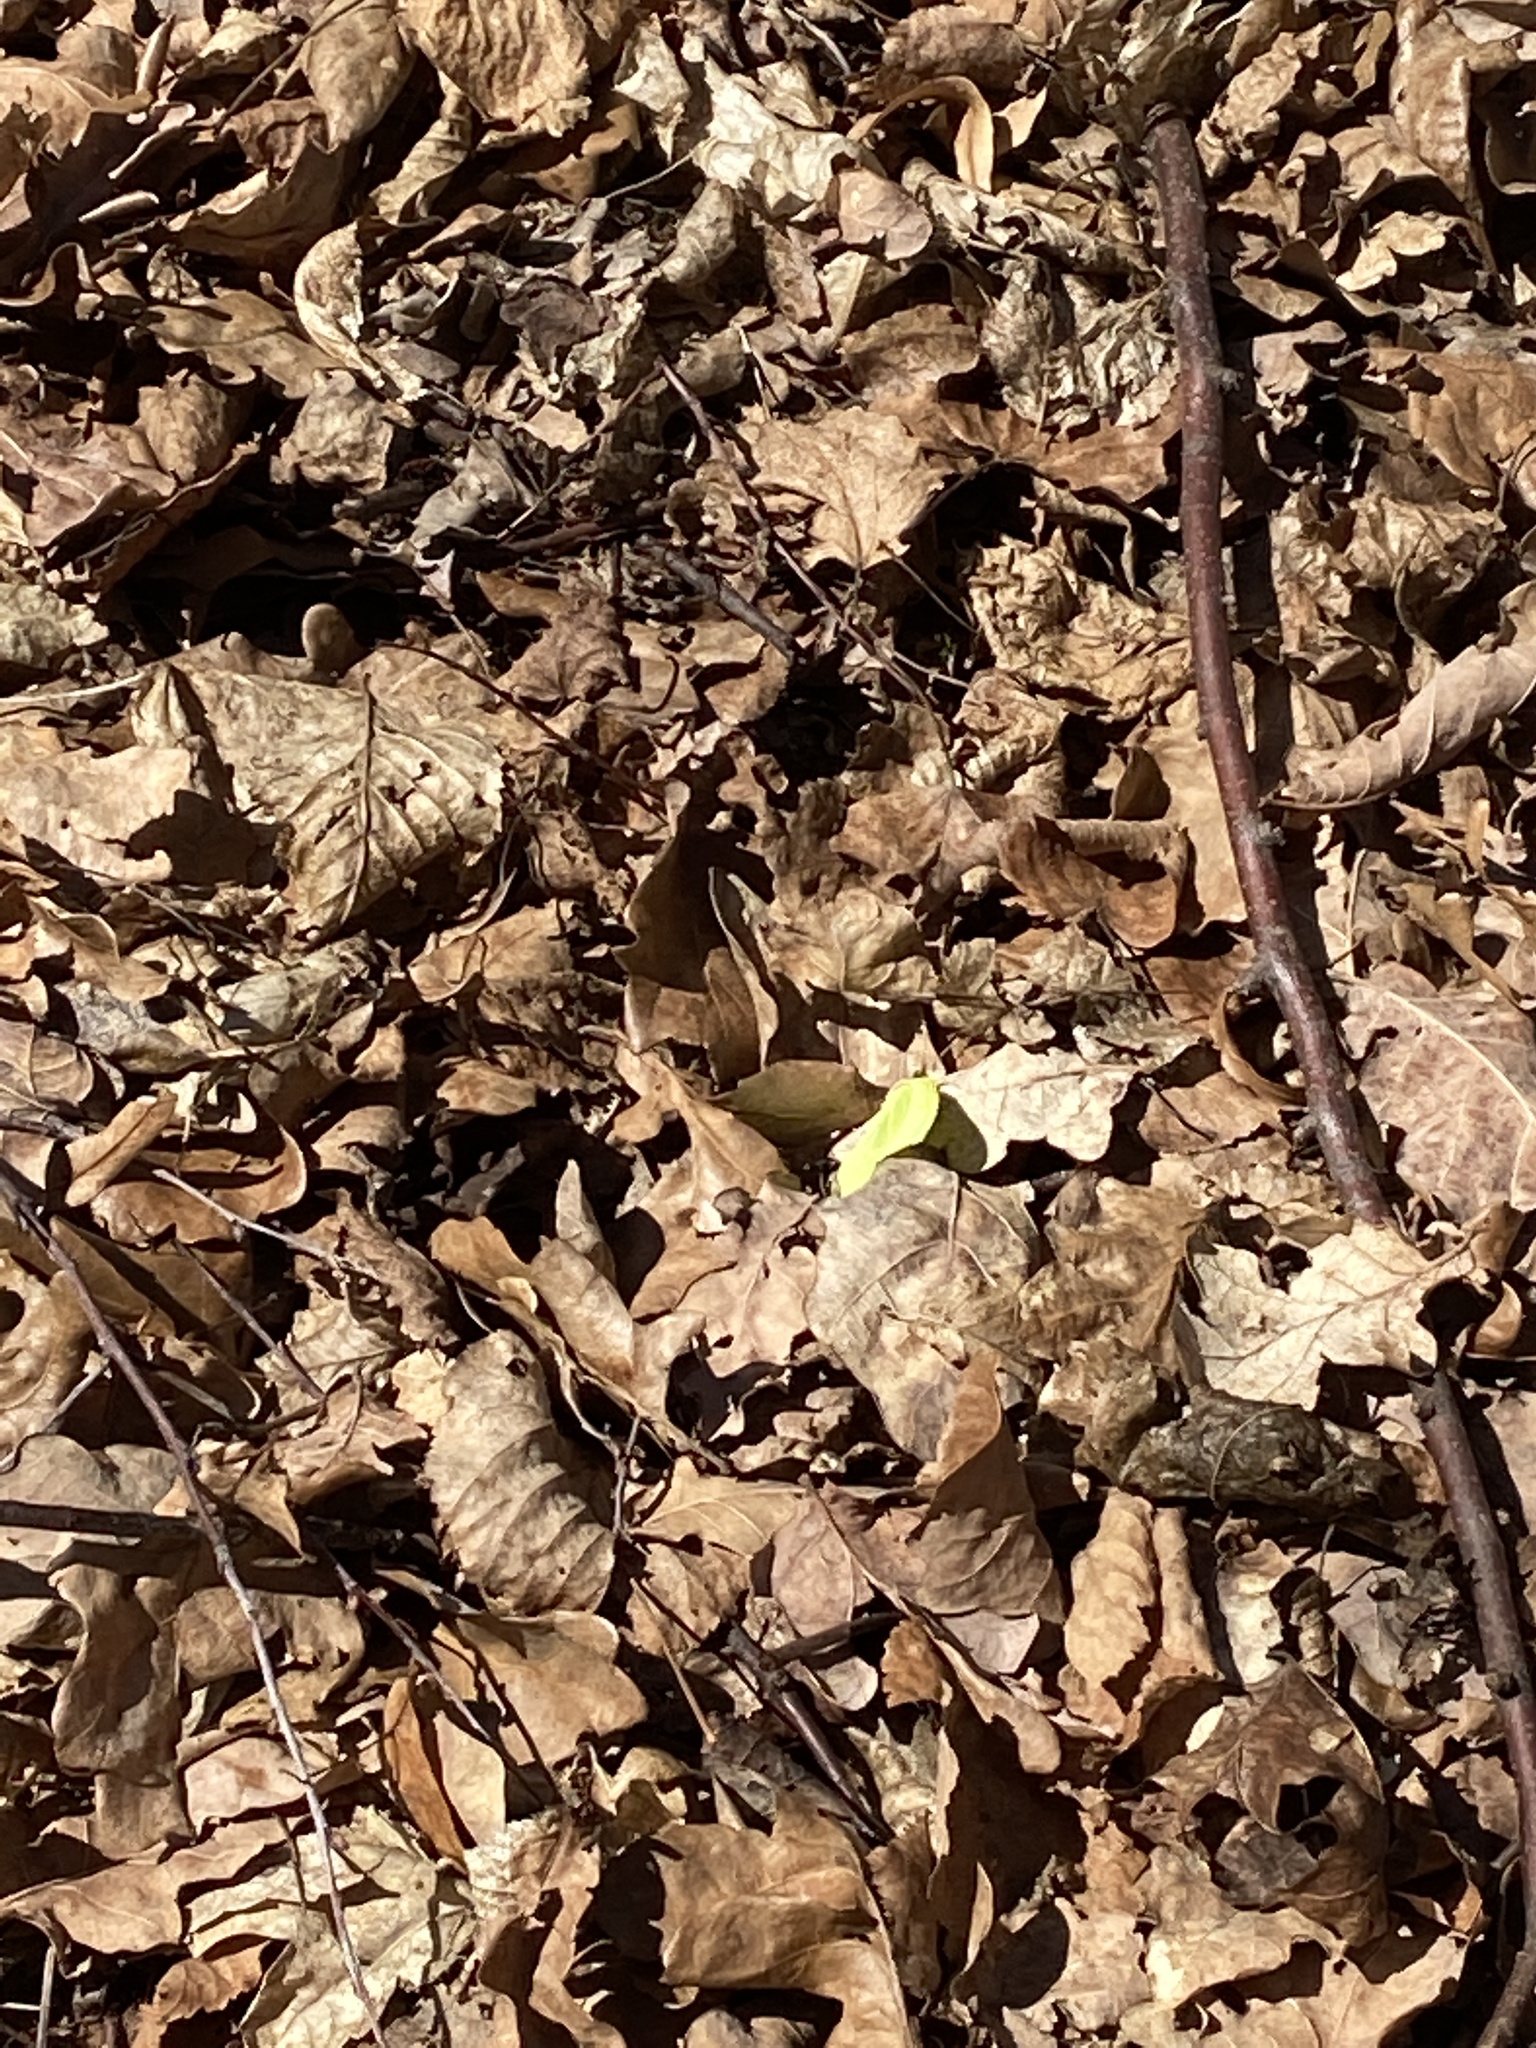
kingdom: Animalia
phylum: Arthropoda
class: Insecta
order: Lepidoptera
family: Pieridae
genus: Gonepteryx
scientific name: Gonepteryx rhamni
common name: Brimstone
